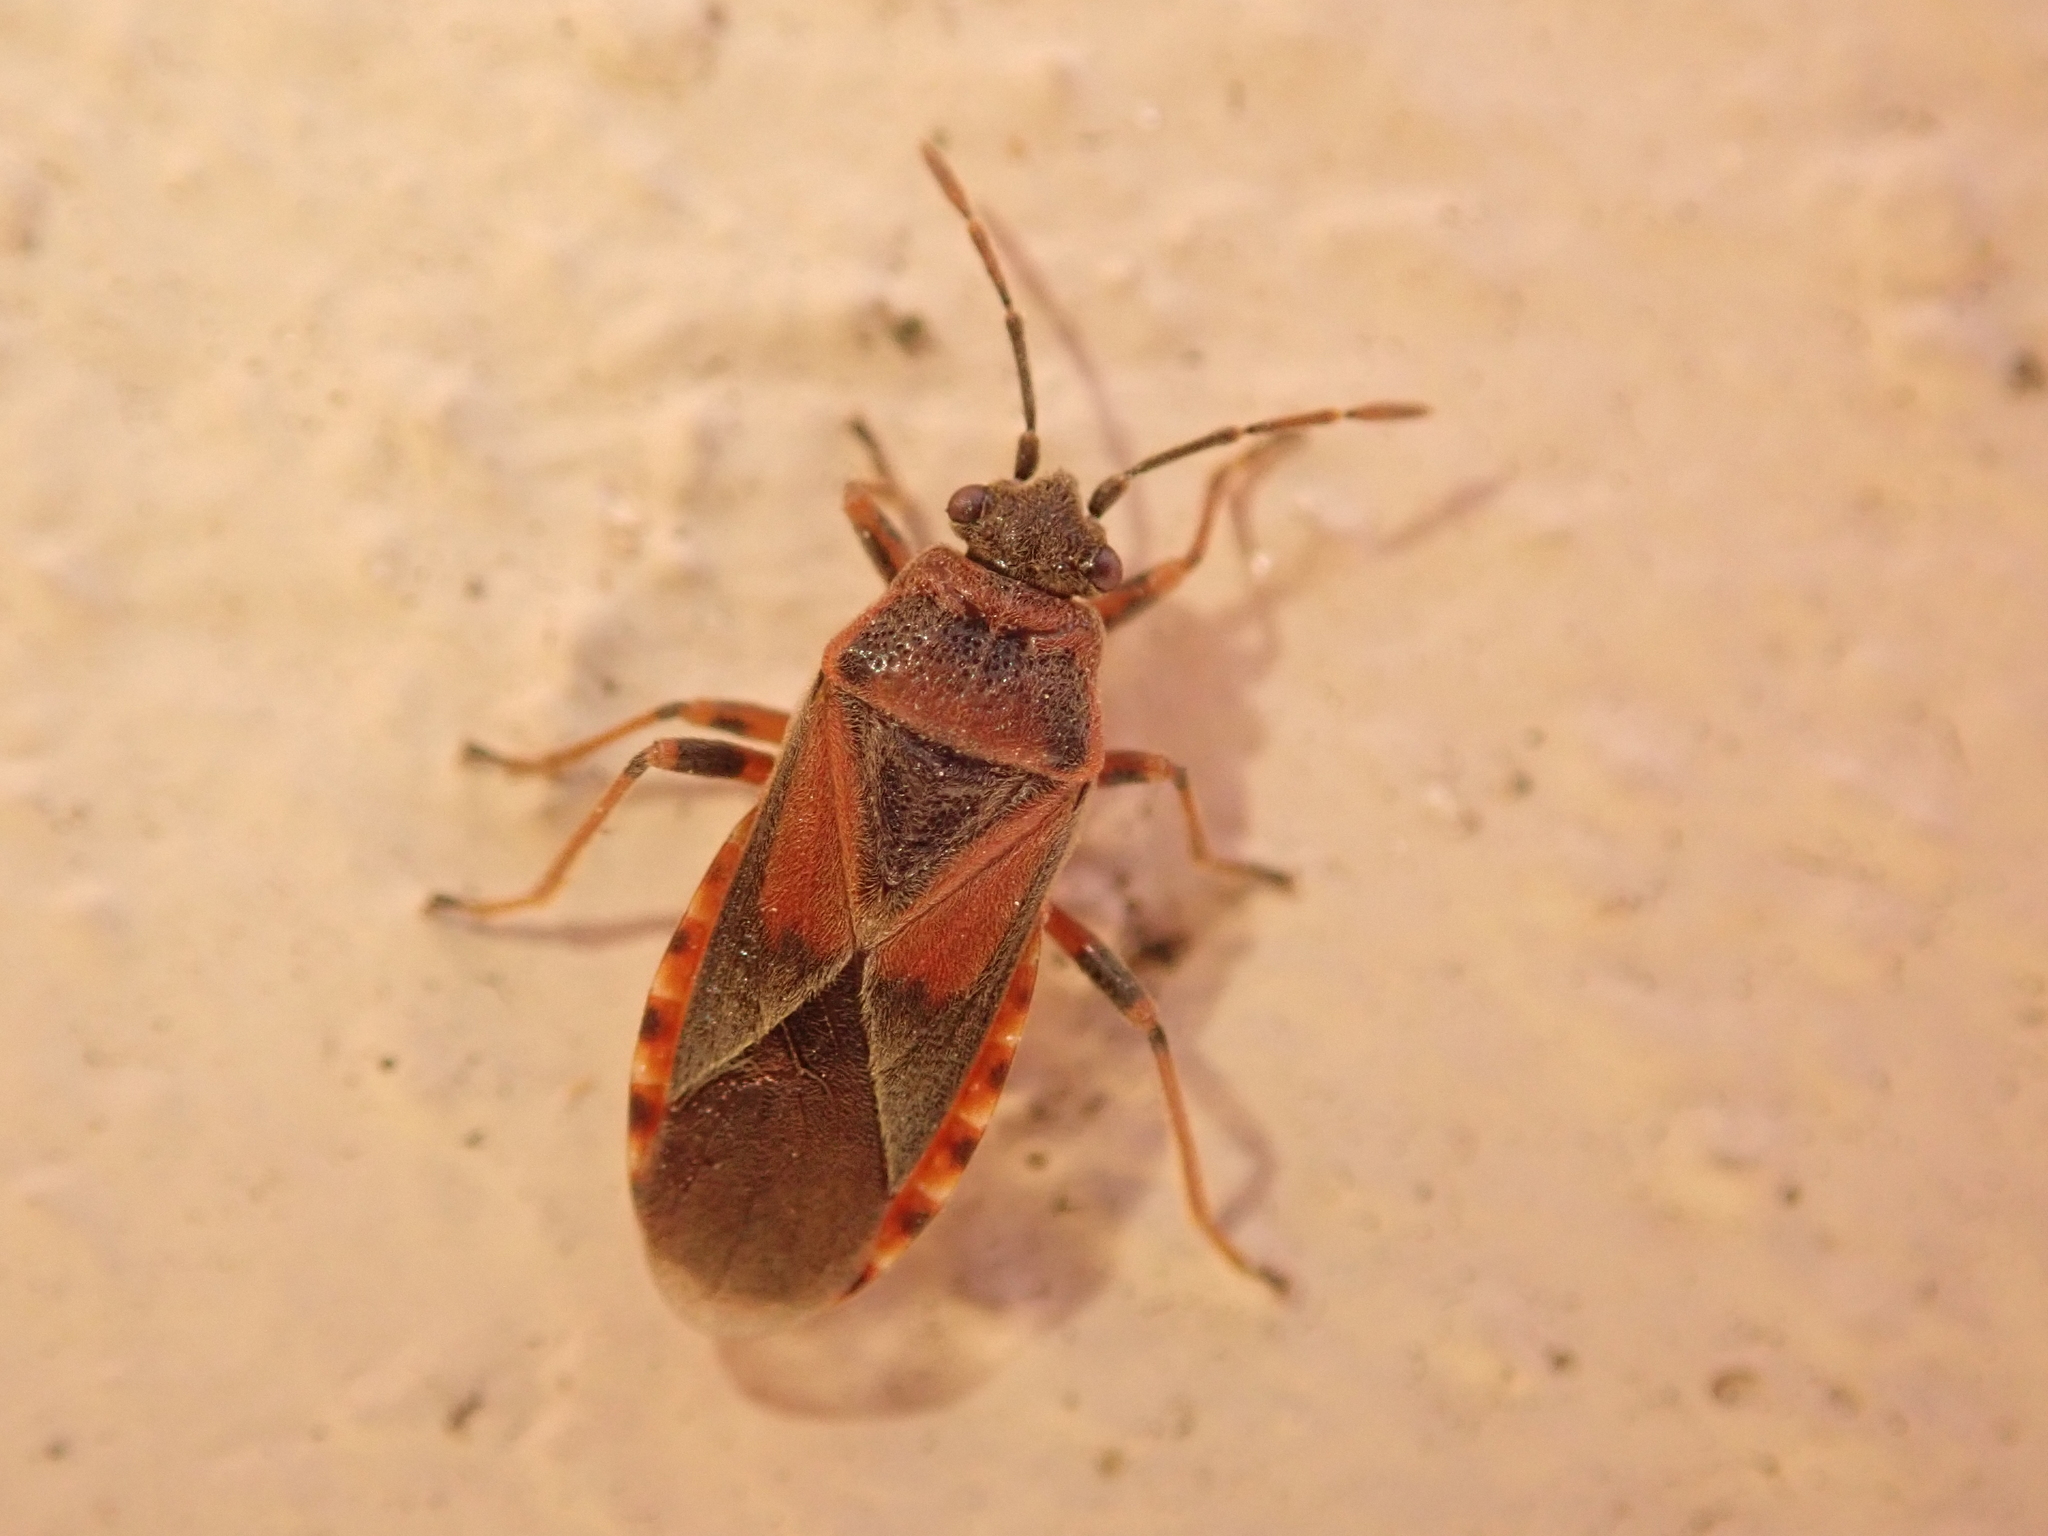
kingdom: Animalia
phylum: Arthropoda
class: Insecta
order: Hemiptera
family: Lygaeidae
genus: Arocatus
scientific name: Arocatus melanocephalus
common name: Lygaeid bug
